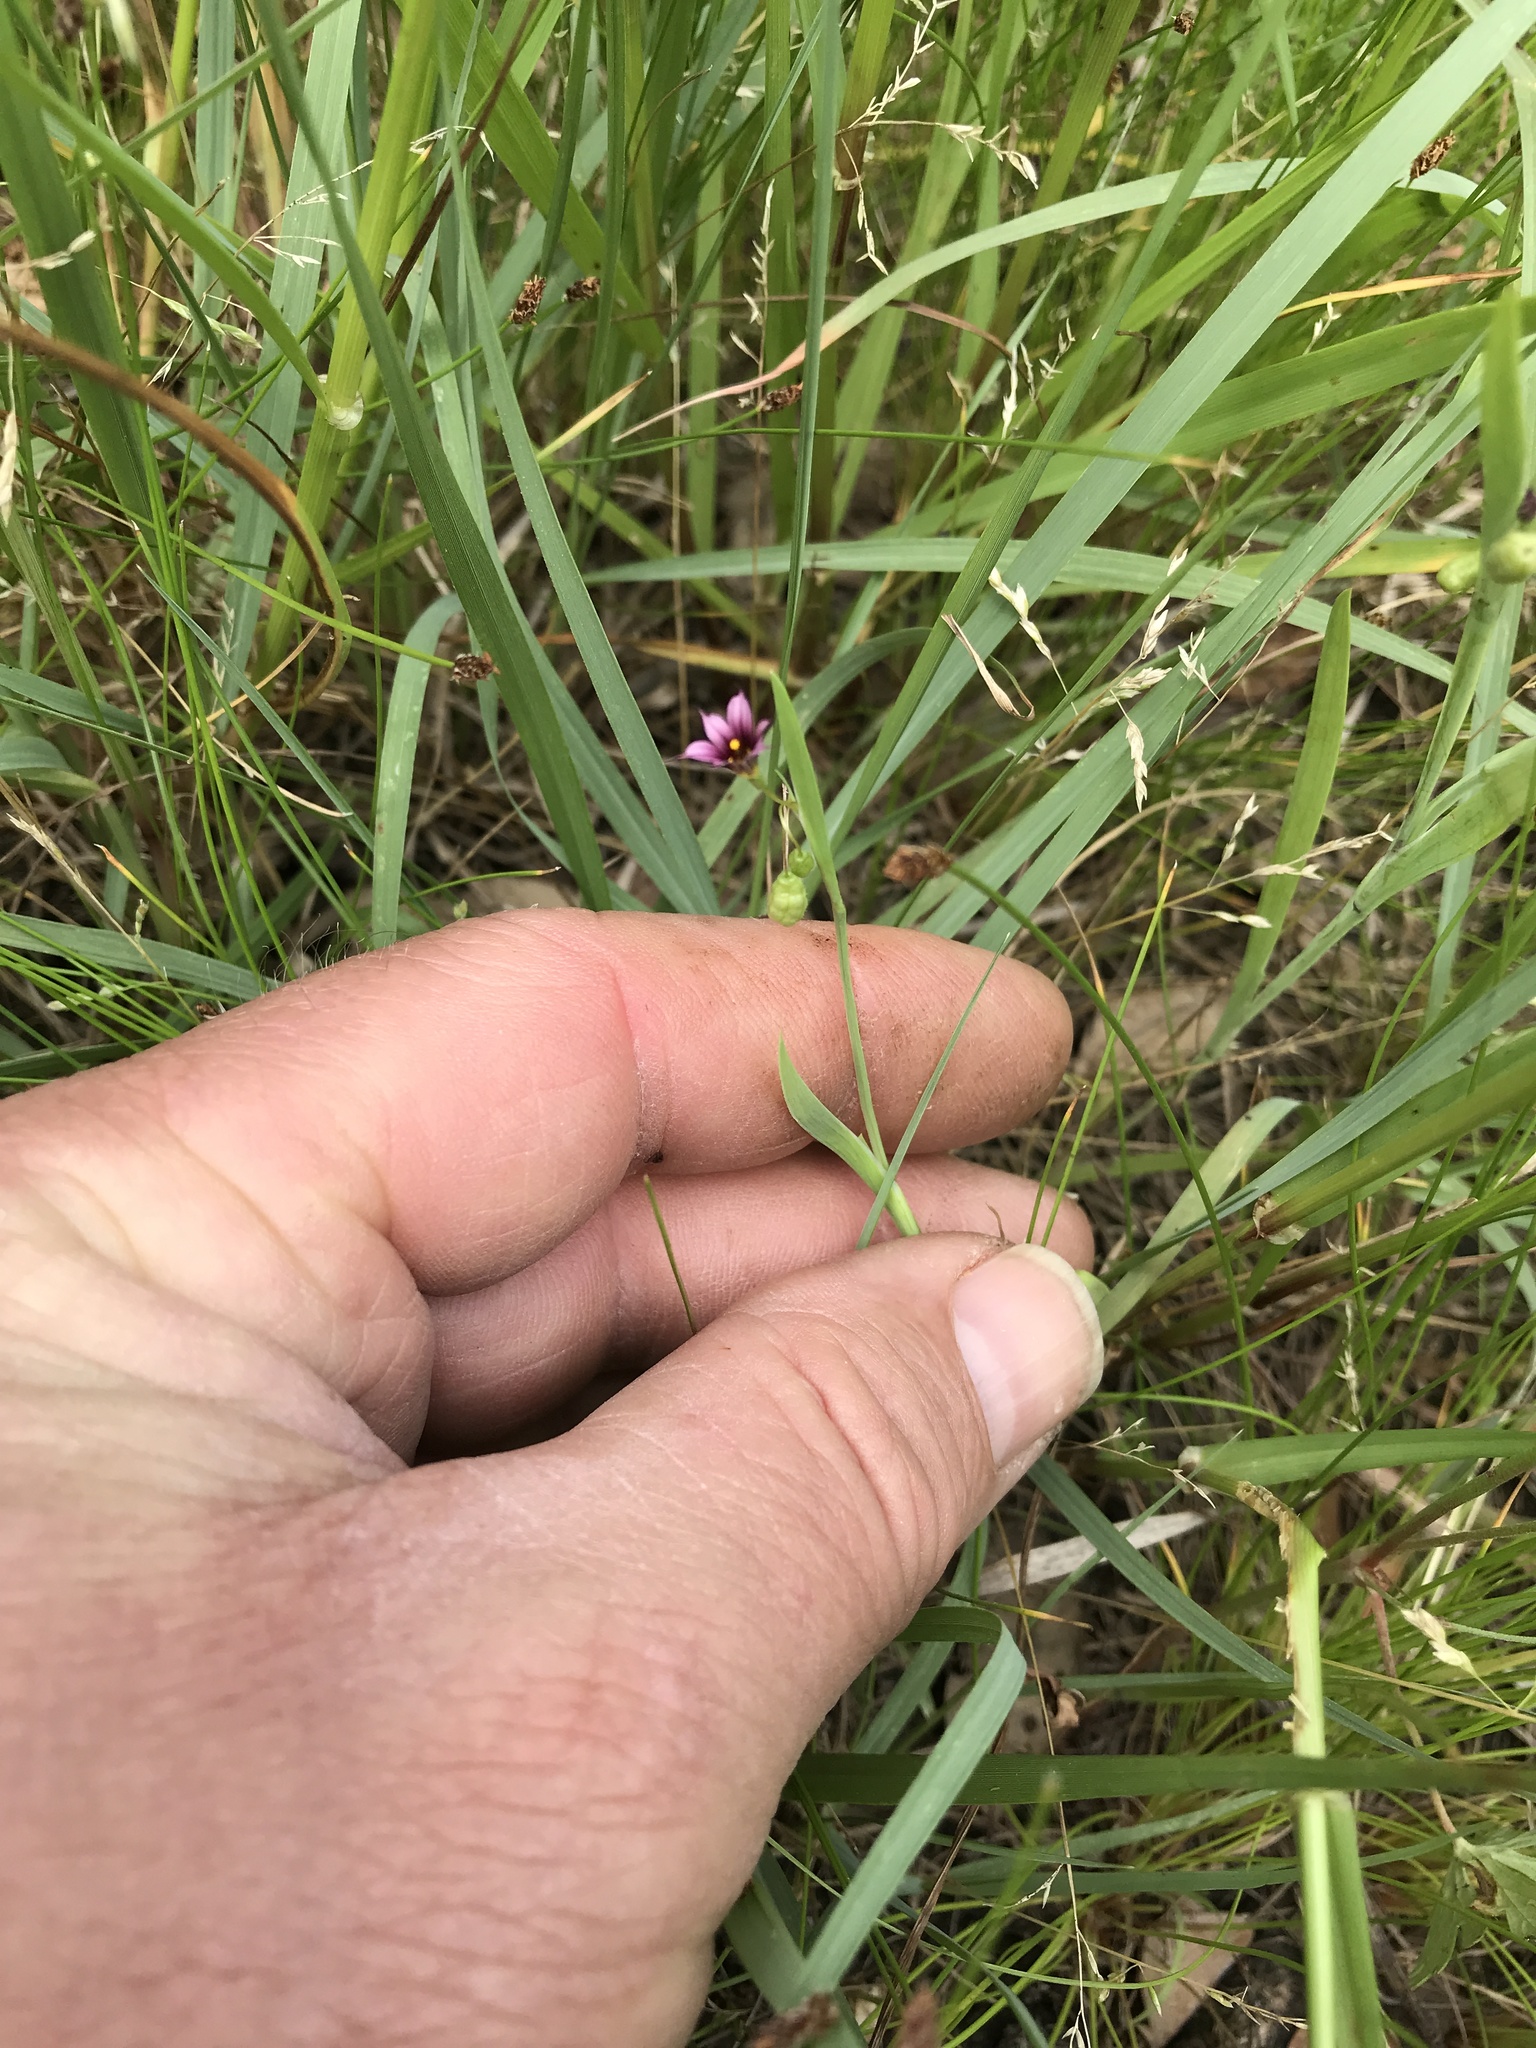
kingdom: Plantae
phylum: Tracheophyta
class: Liliopsida
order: Asparagales
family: Iridaceae
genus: Sisyrinchium
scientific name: Sisyrinchium minus
